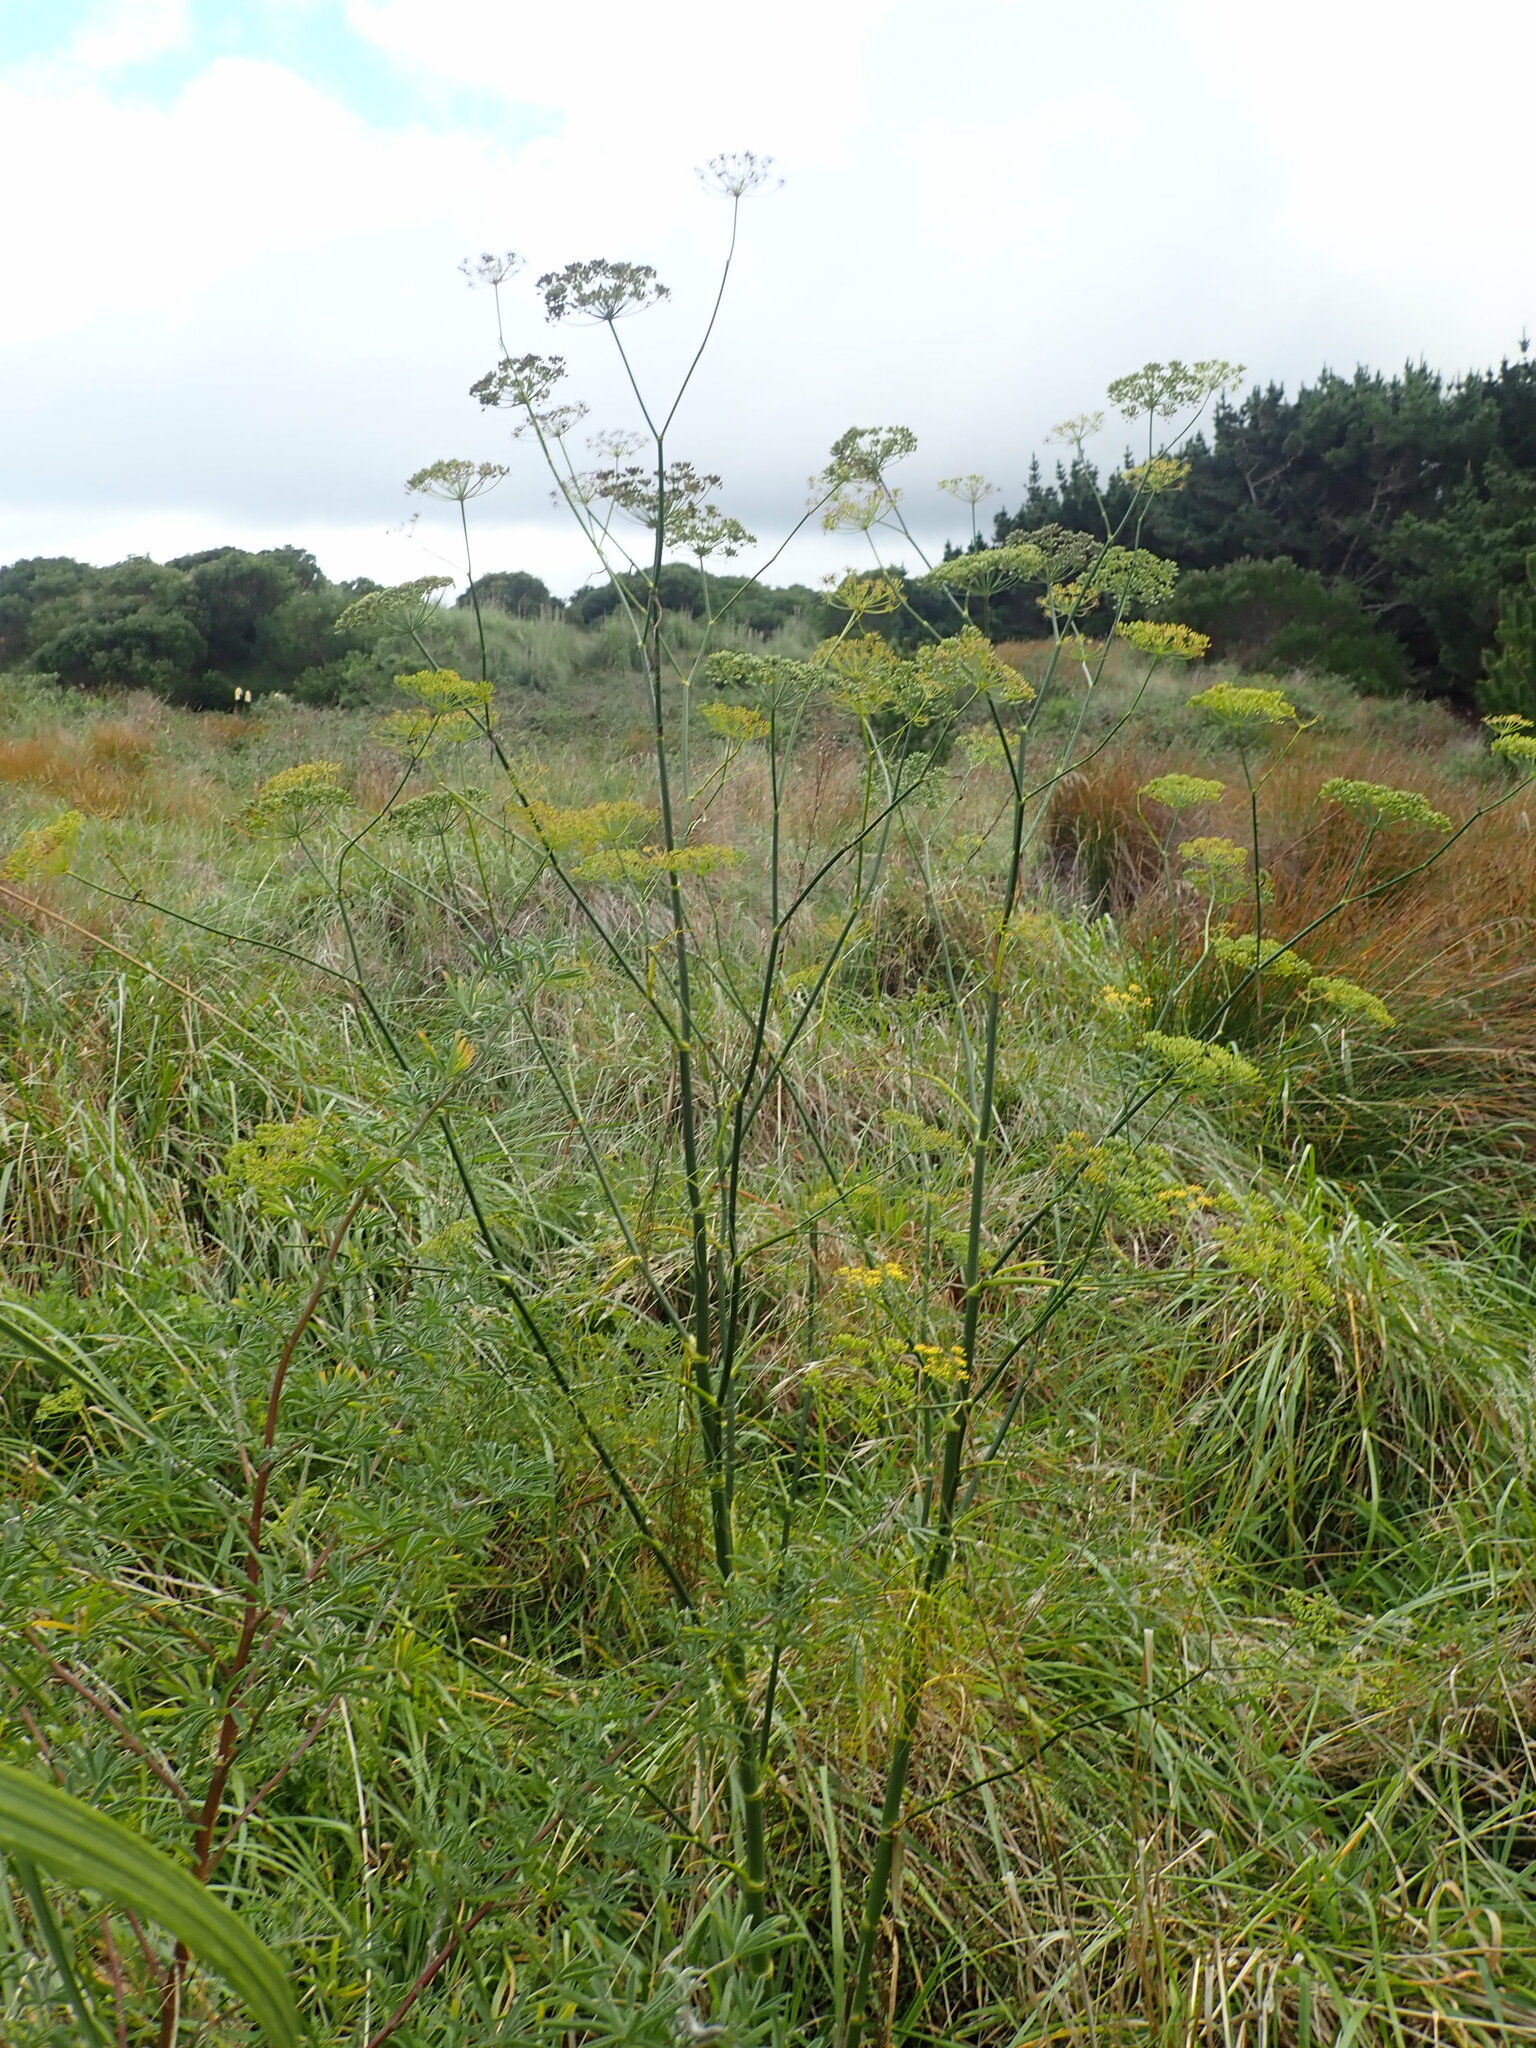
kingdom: Plantae
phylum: Tracheophyta
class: Magnoliopsida
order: Apiales
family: Apiaceae
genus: Foeniculum
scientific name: Foeniculum vulgare
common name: Fennel
